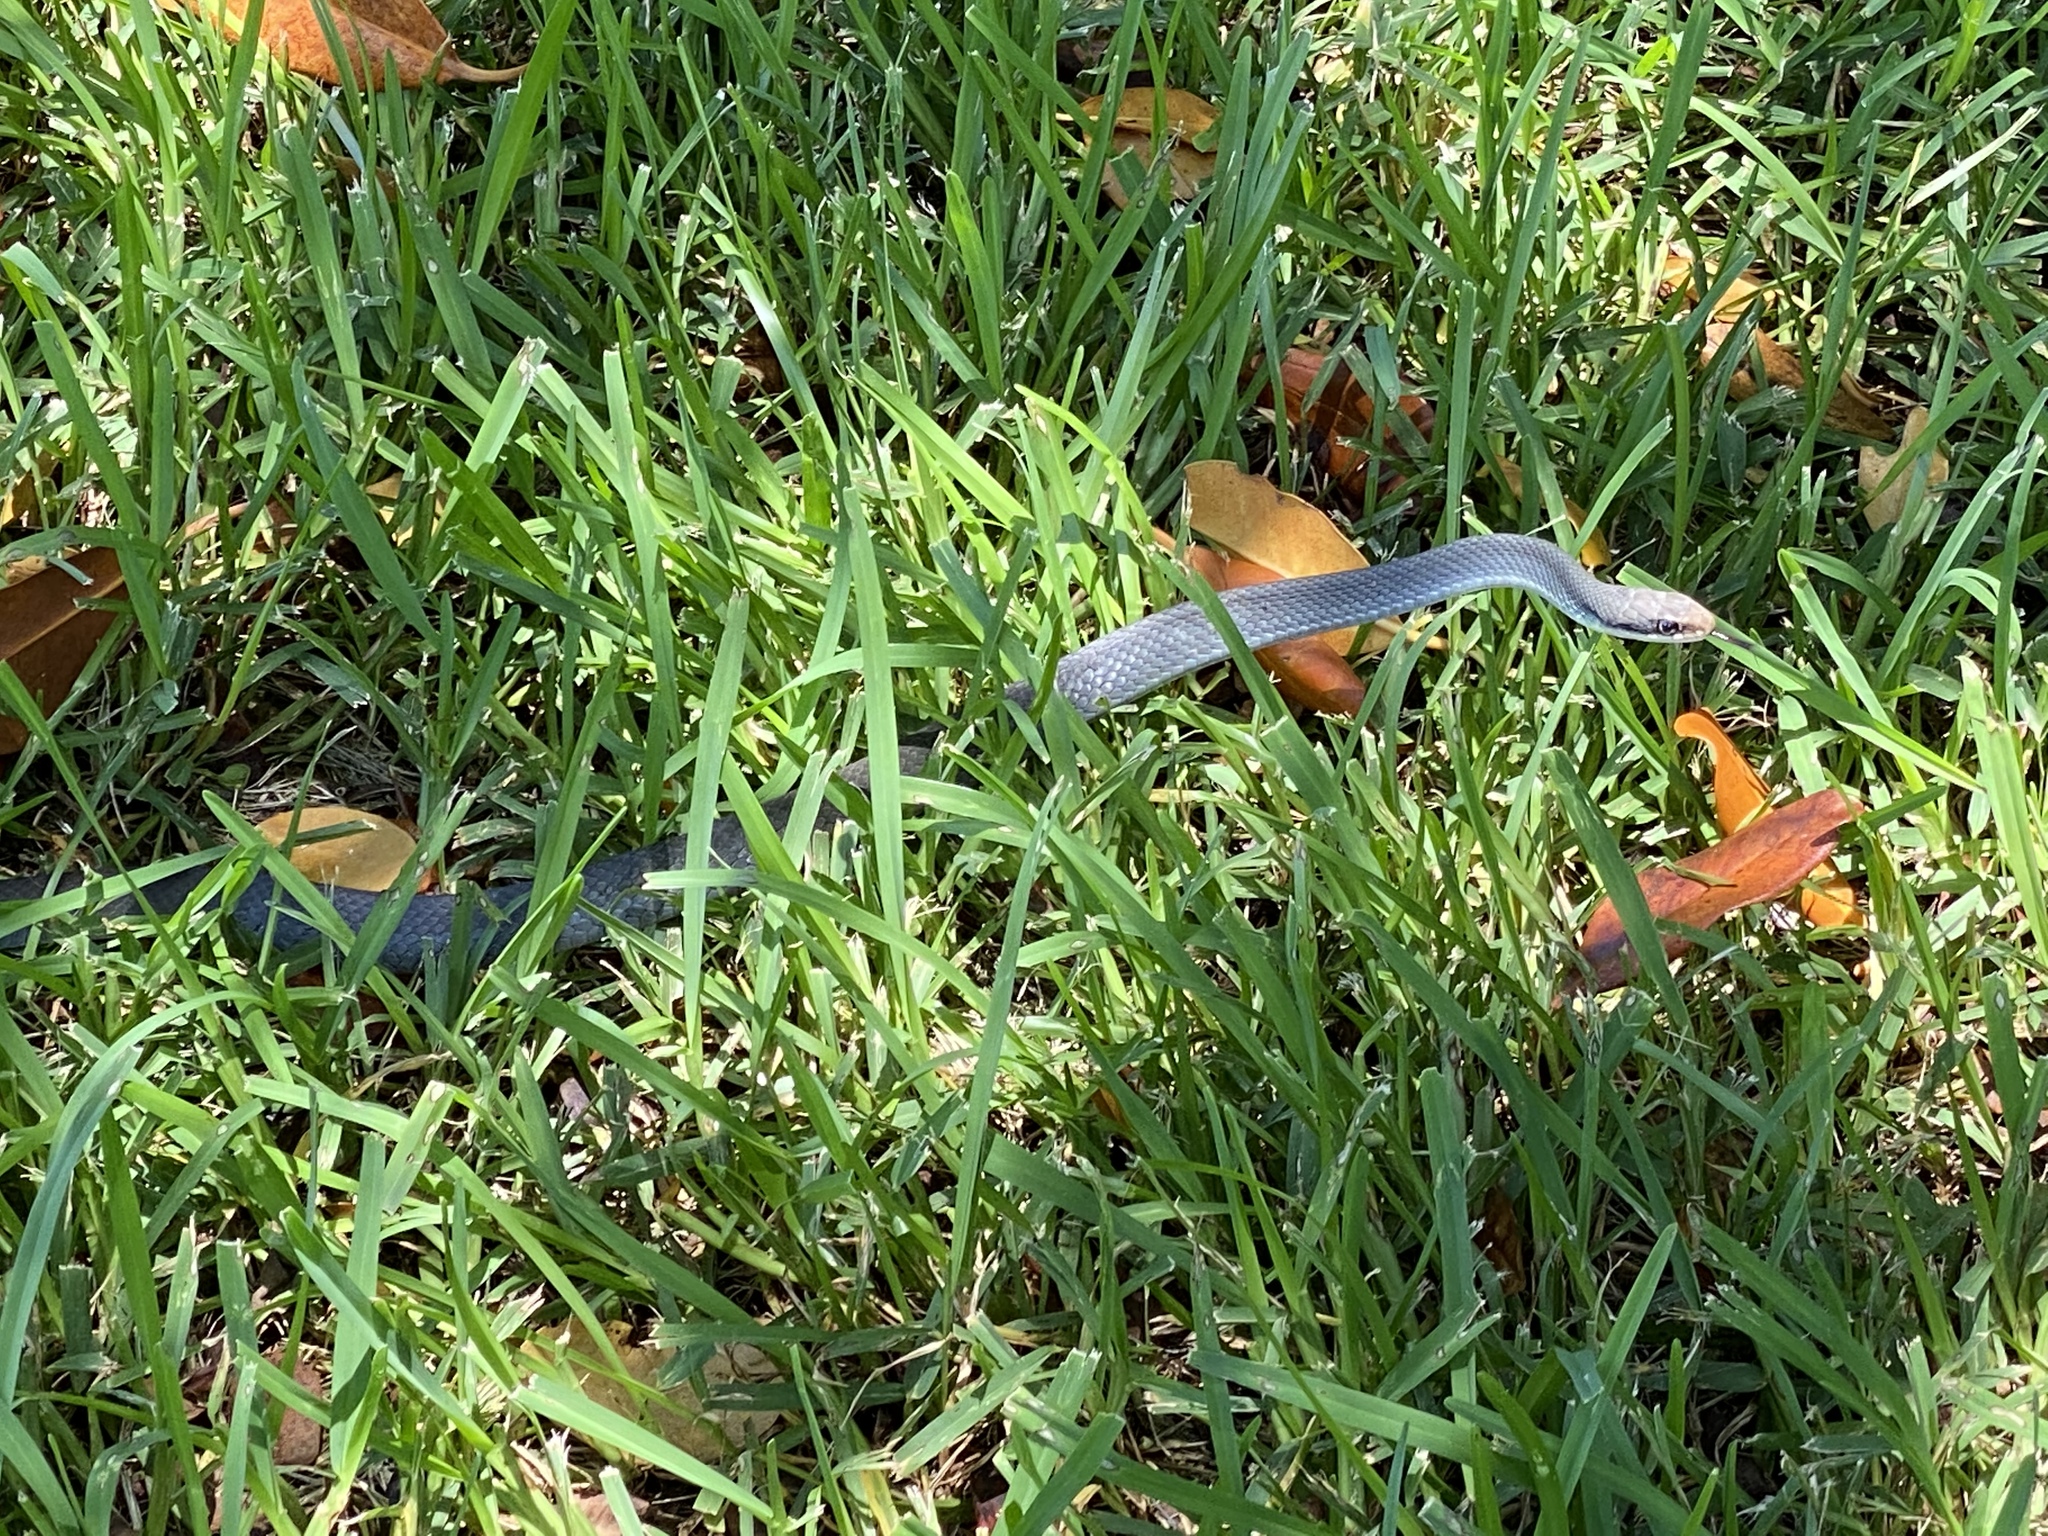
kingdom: Animalia
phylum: Chordata
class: Squamata
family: Colubridae
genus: Coluber
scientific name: Coluber constrictor
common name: Eastern racer
